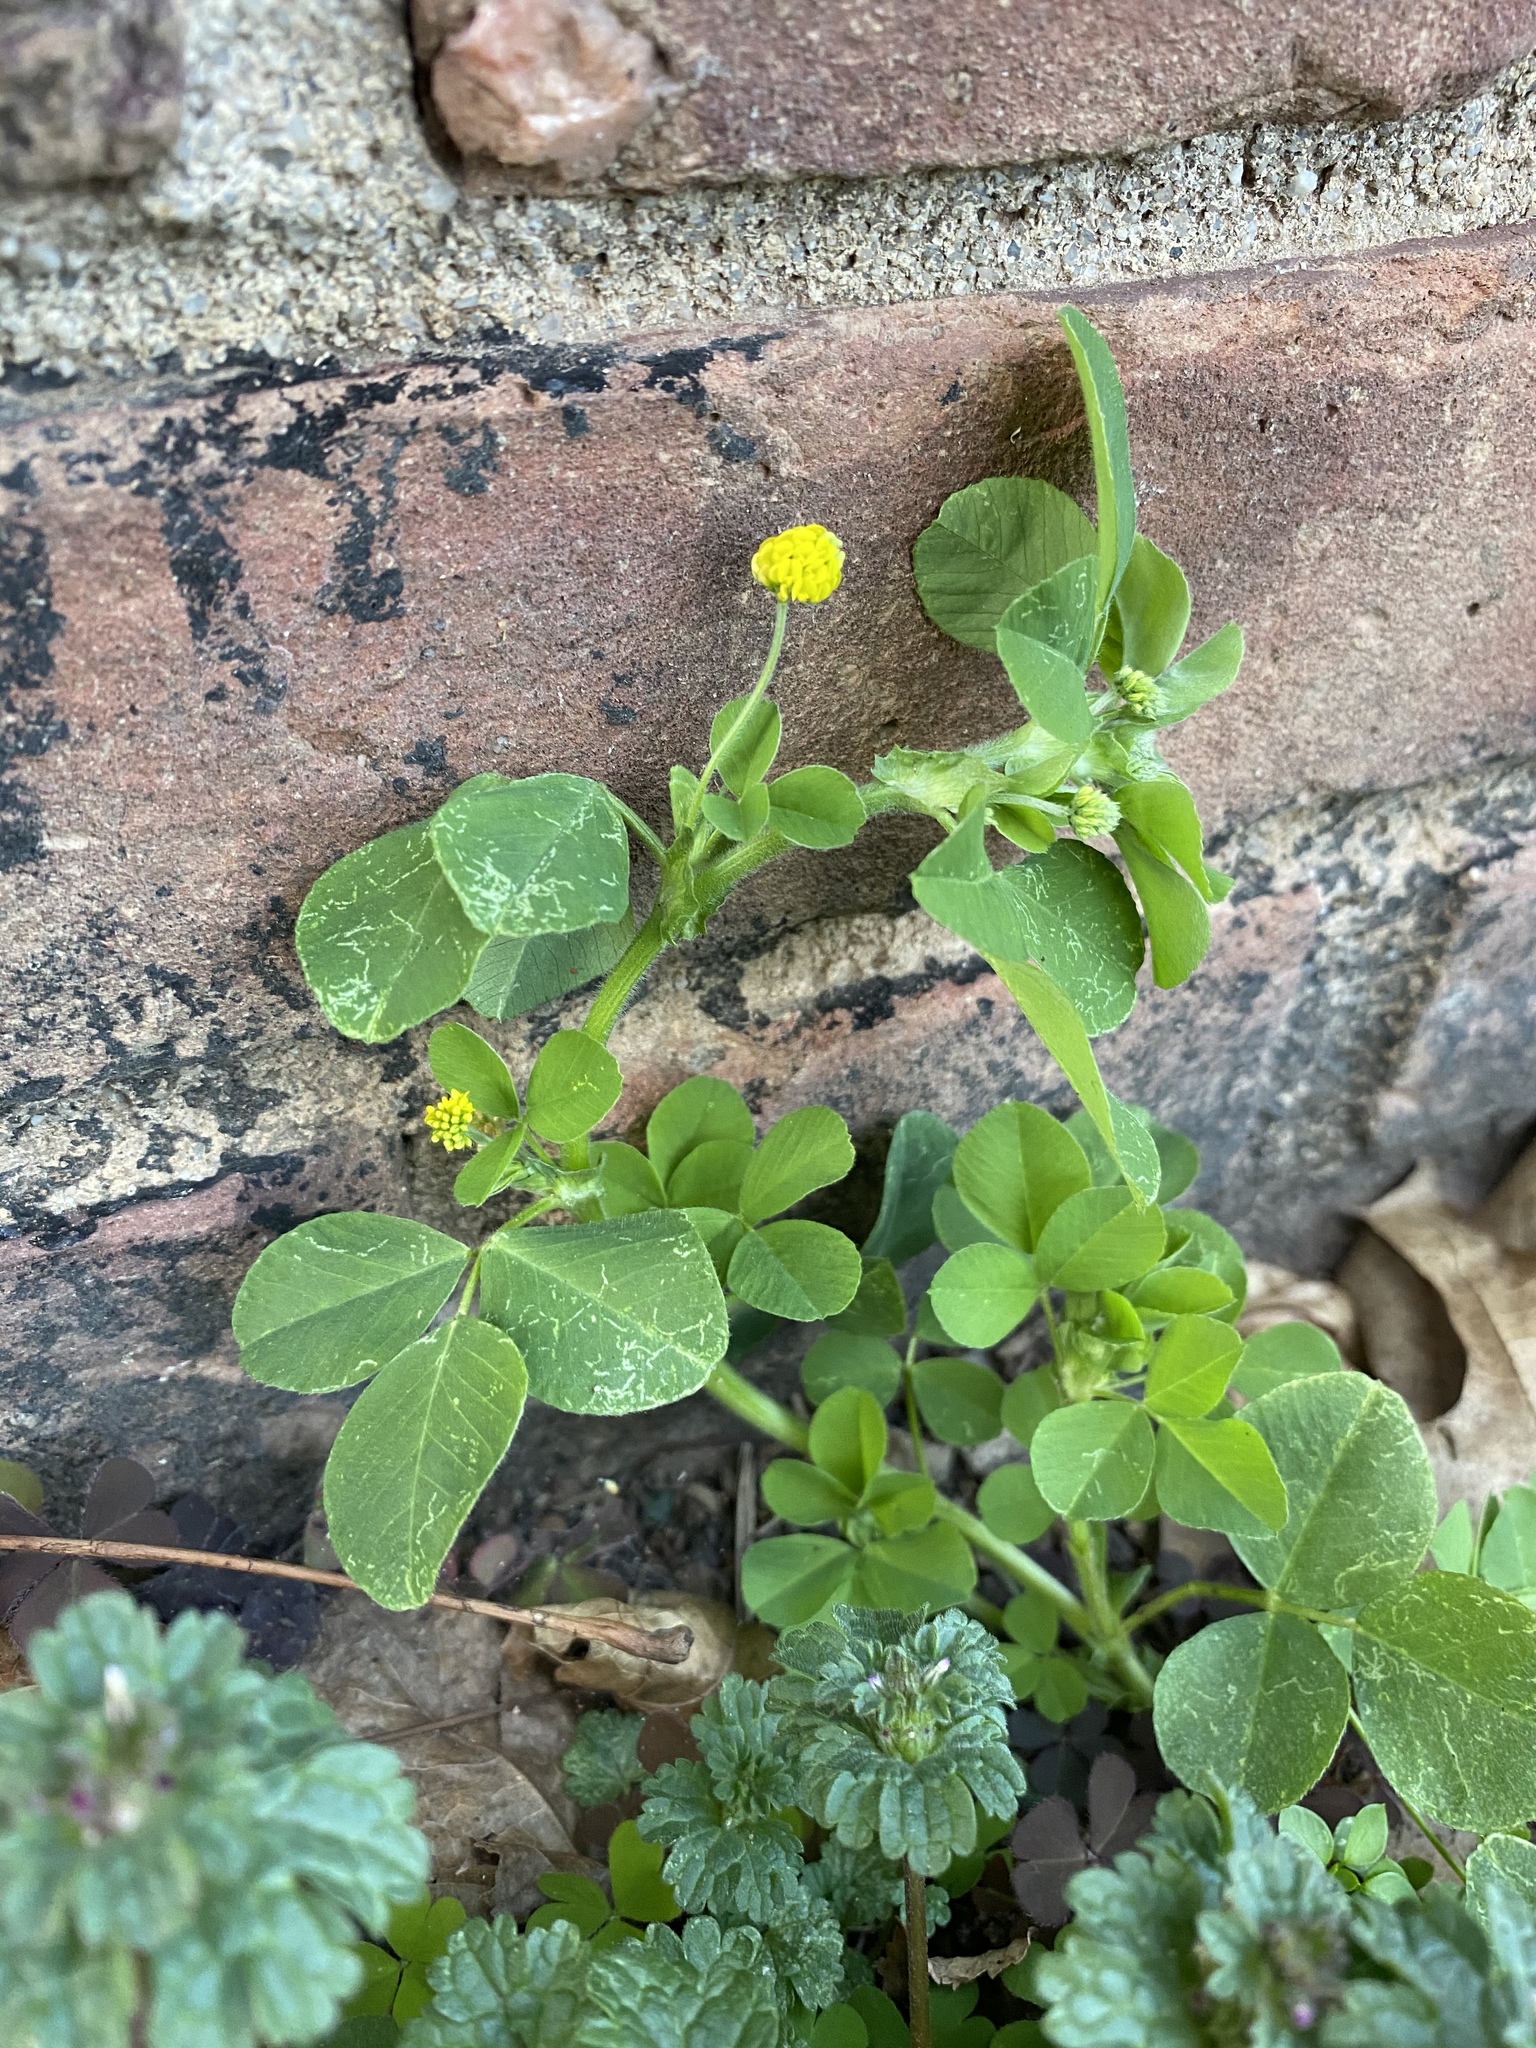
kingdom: Plantae
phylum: Tracheophyta
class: Magnoliopsida
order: Fabales
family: Fabaceae
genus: Medicago
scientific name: Medicago lupulina
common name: Black medick
